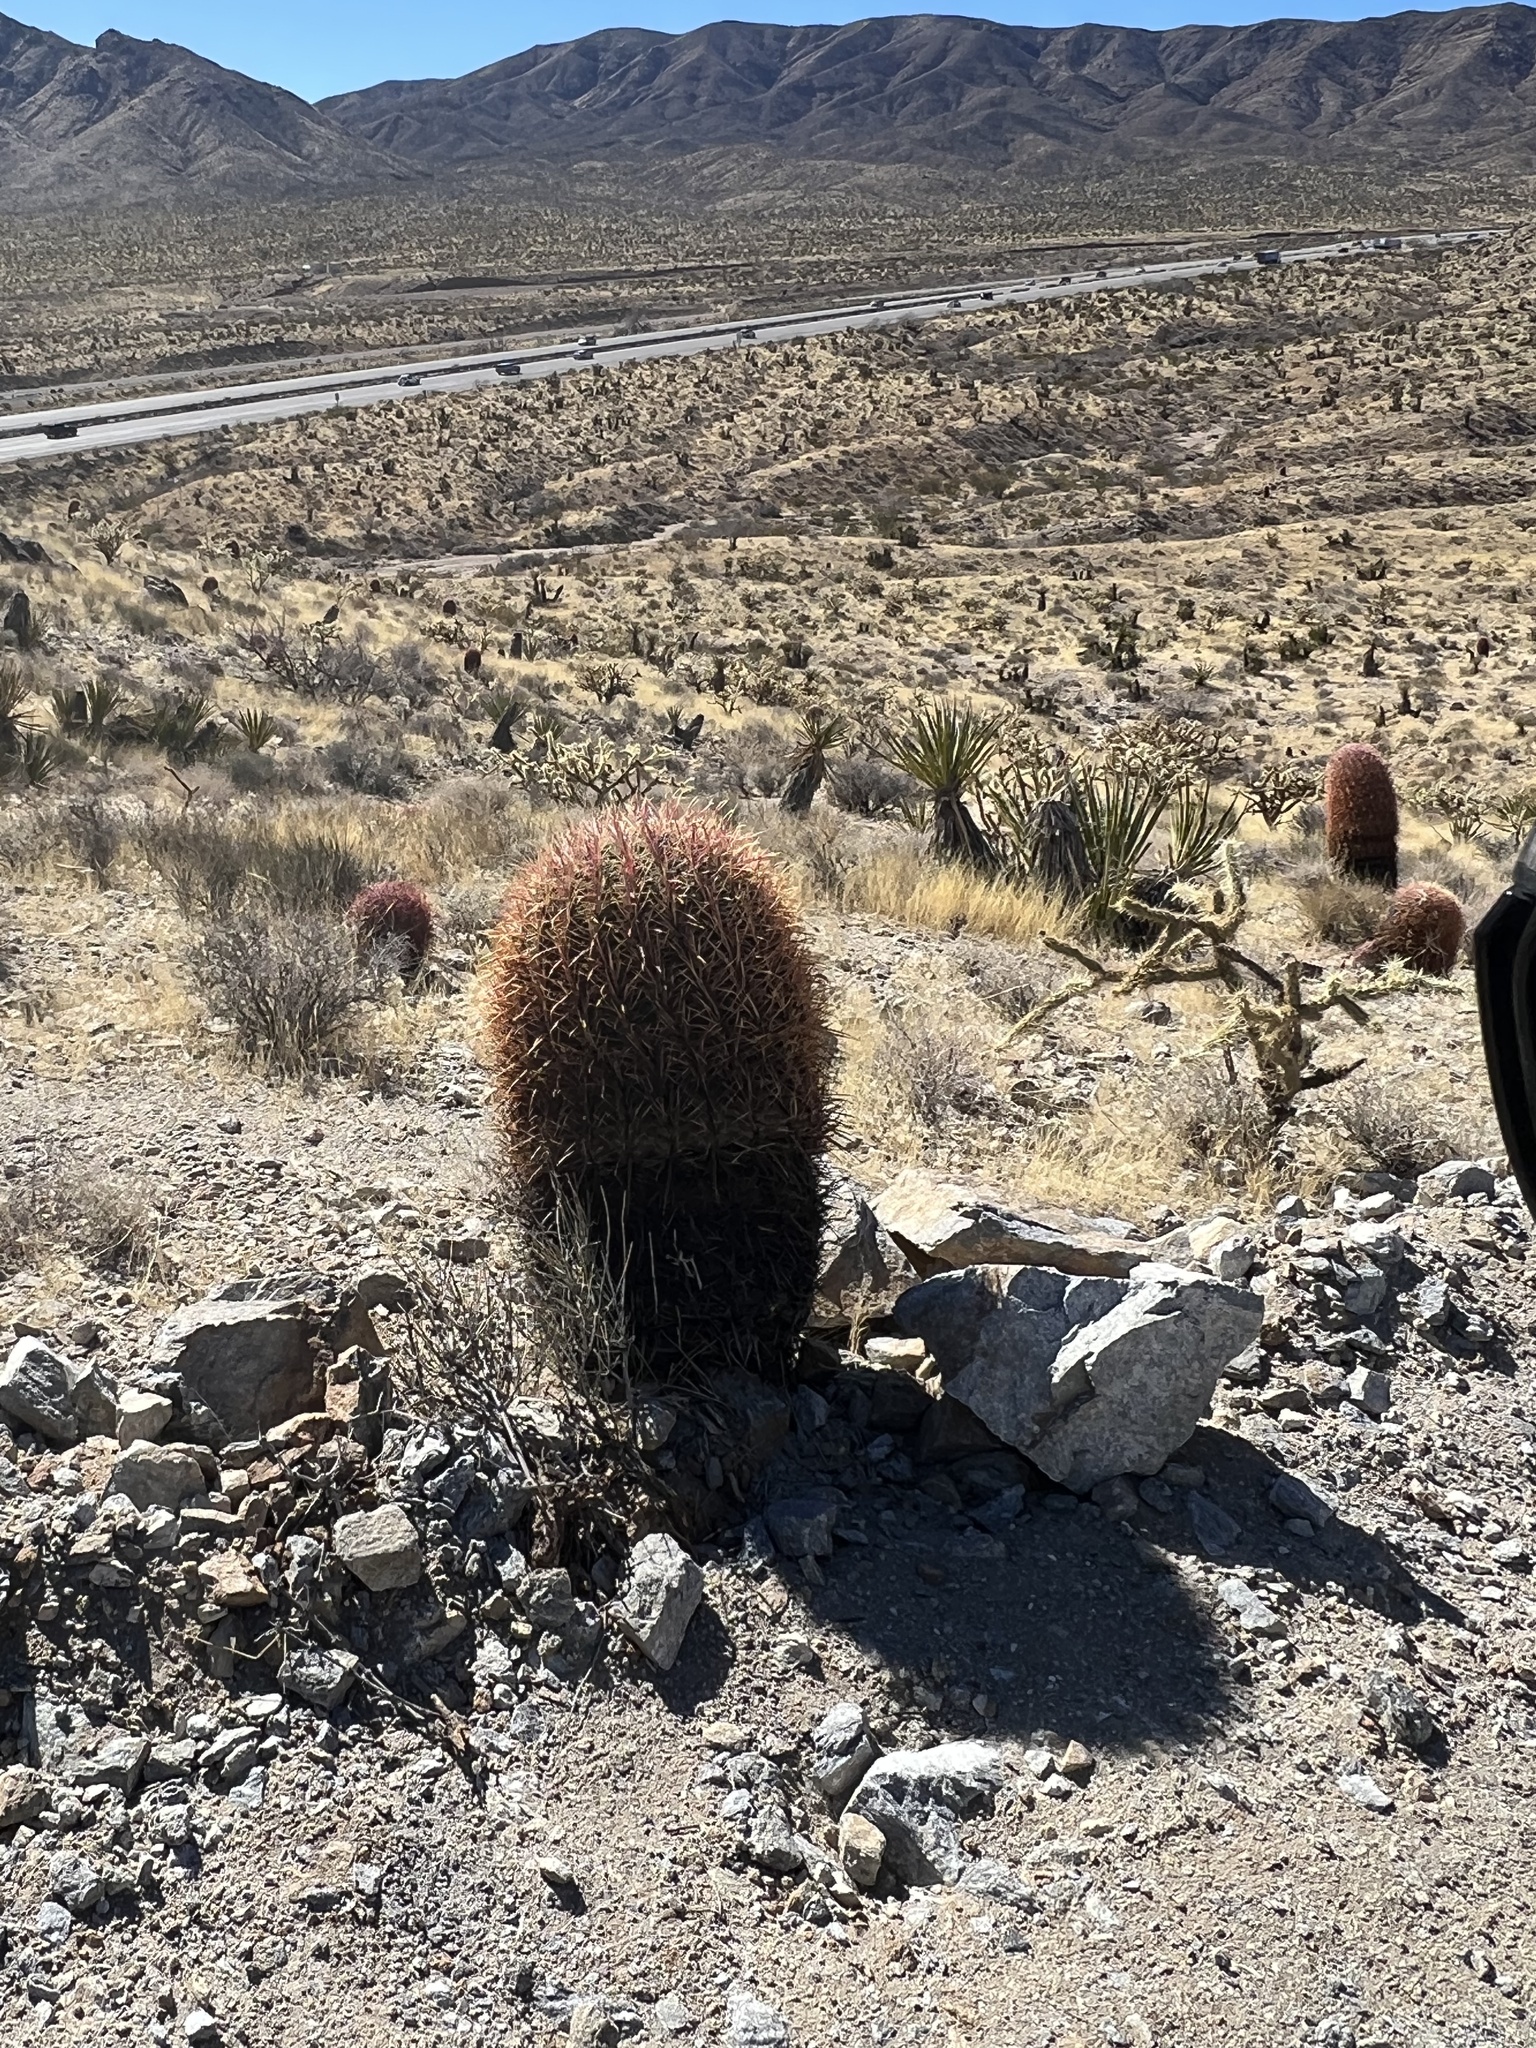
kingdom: Plantae
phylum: Tracheophyta
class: Magnoliopsida
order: Caryophyllales
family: Cactaceae
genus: Ferocactus
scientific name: Ferocactus cylindraceus
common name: California barrel cactus
